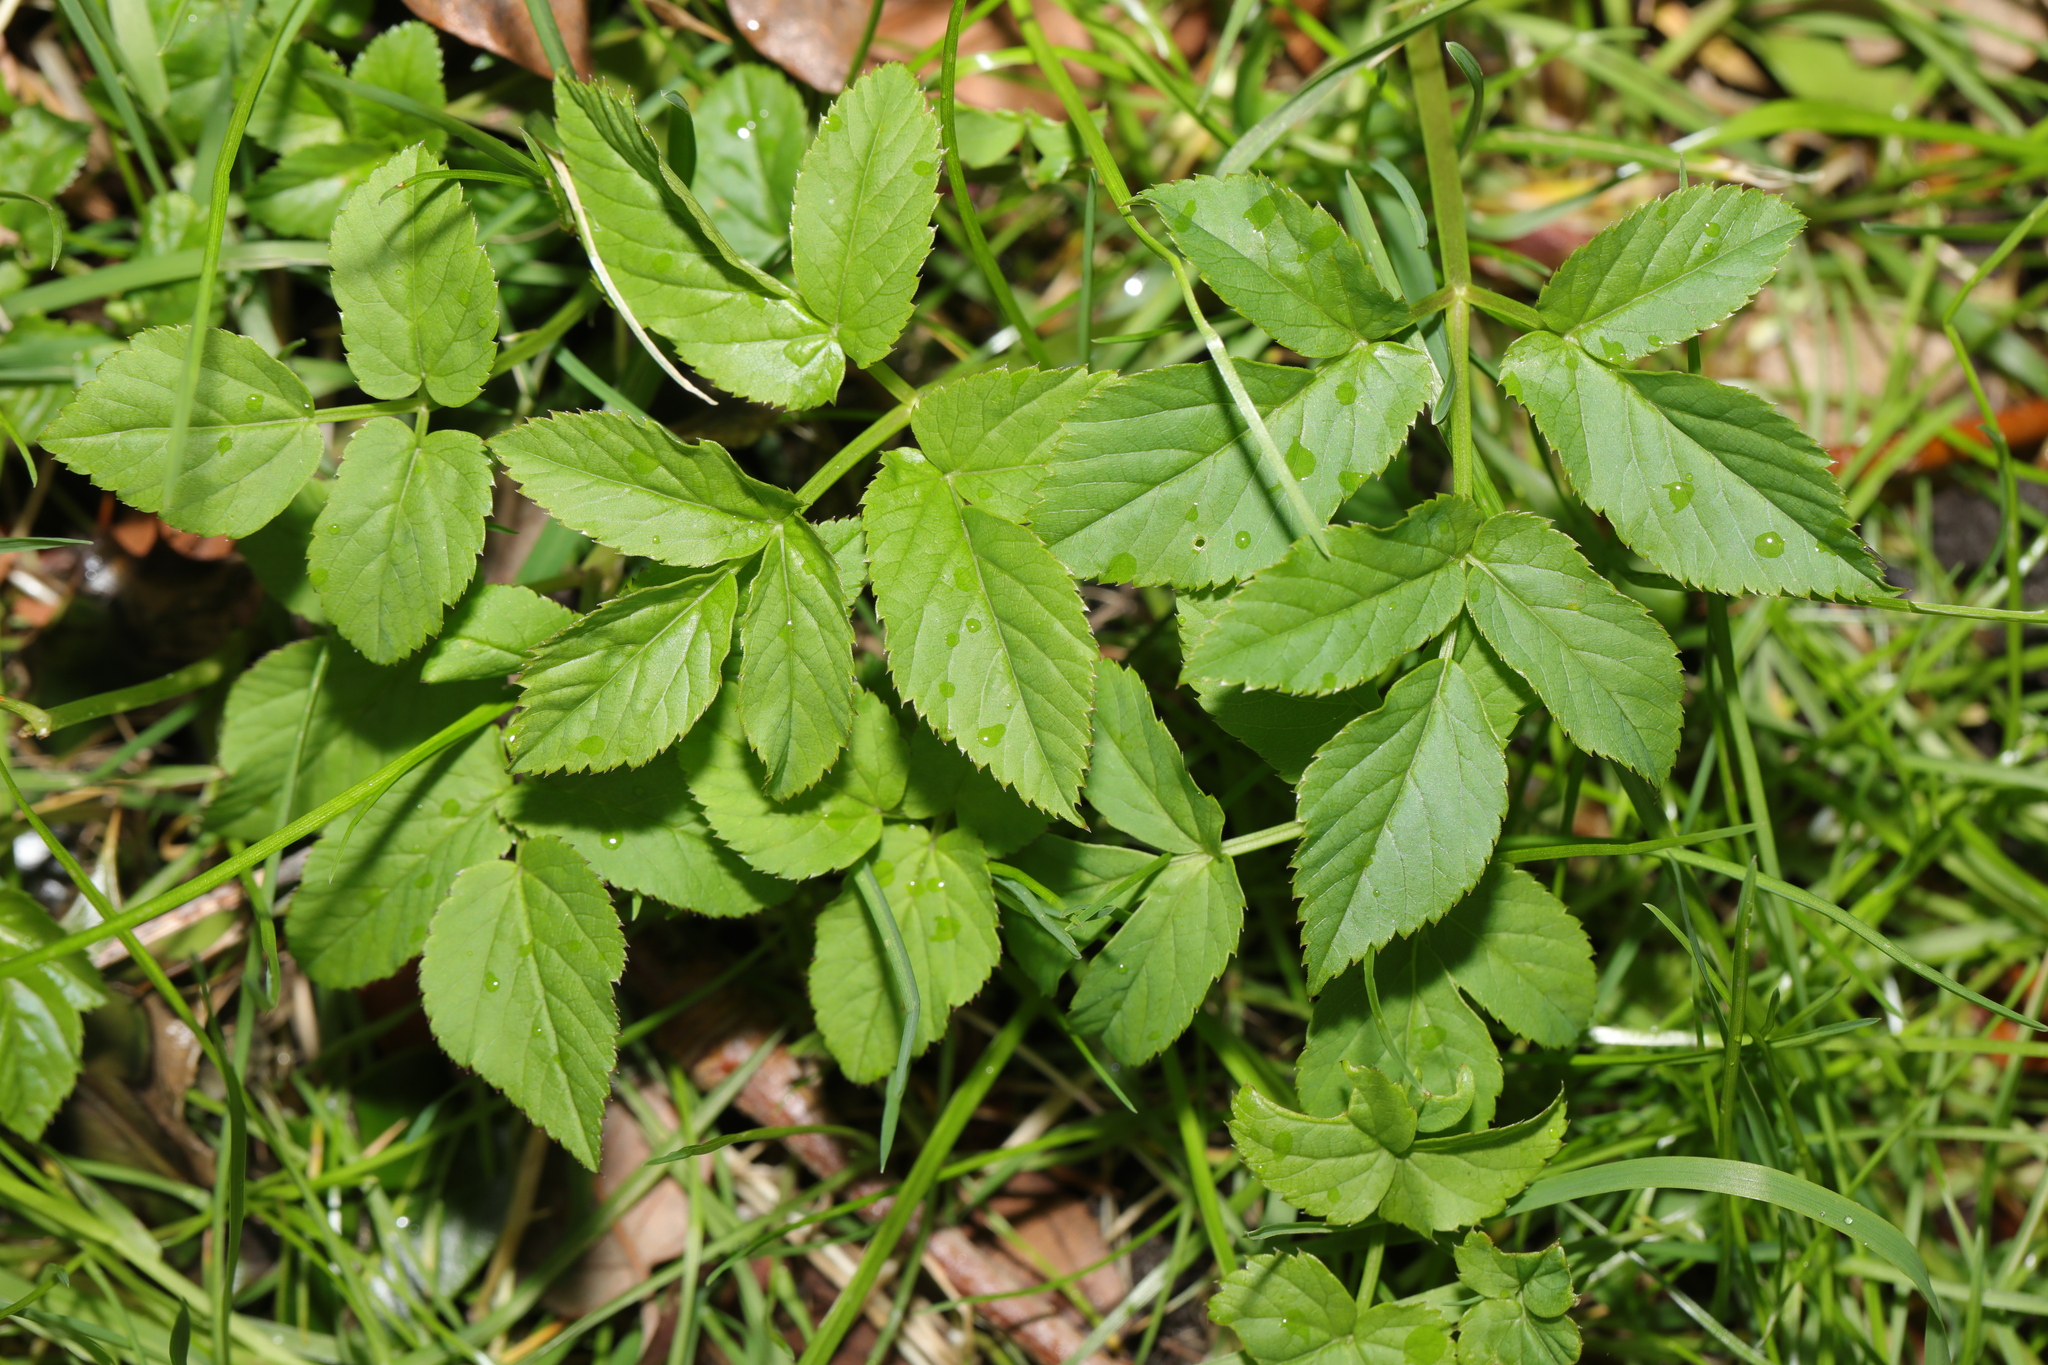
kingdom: Plantae
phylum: Tracheophyta
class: Magnoliopsida
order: Apiales
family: Apiaceae
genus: Aegopodium
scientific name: Aegopodium podagraria
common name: Ground-elder
